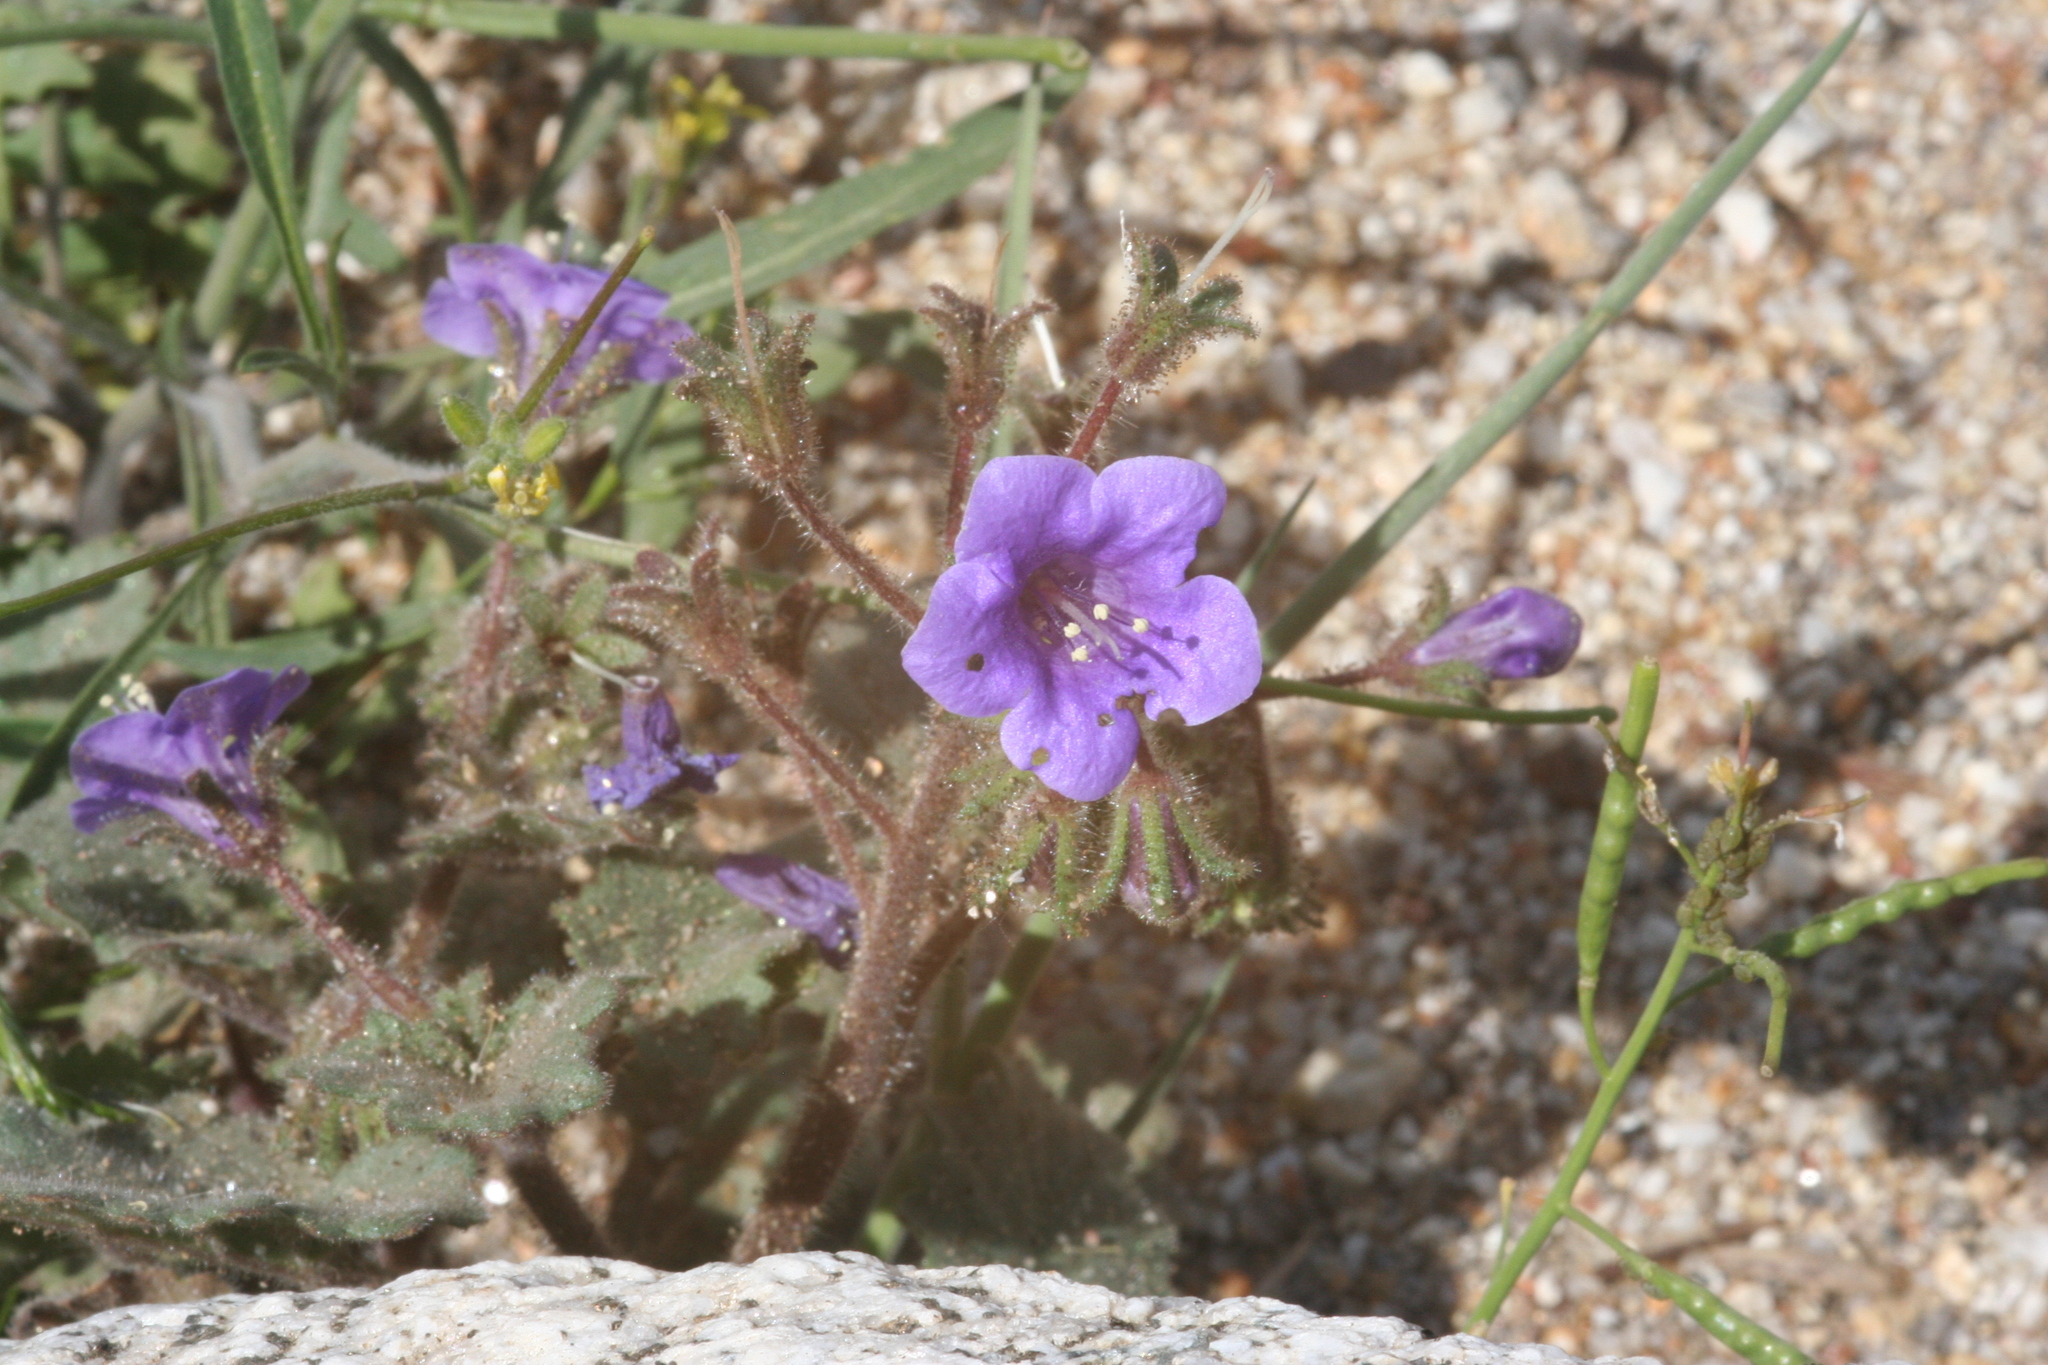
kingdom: Plantae
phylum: Tracheophyta
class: Magnoliopsida
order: Boraginales
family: Hydrophyllaceae
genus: Phacelia
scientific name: Phacelia minor
